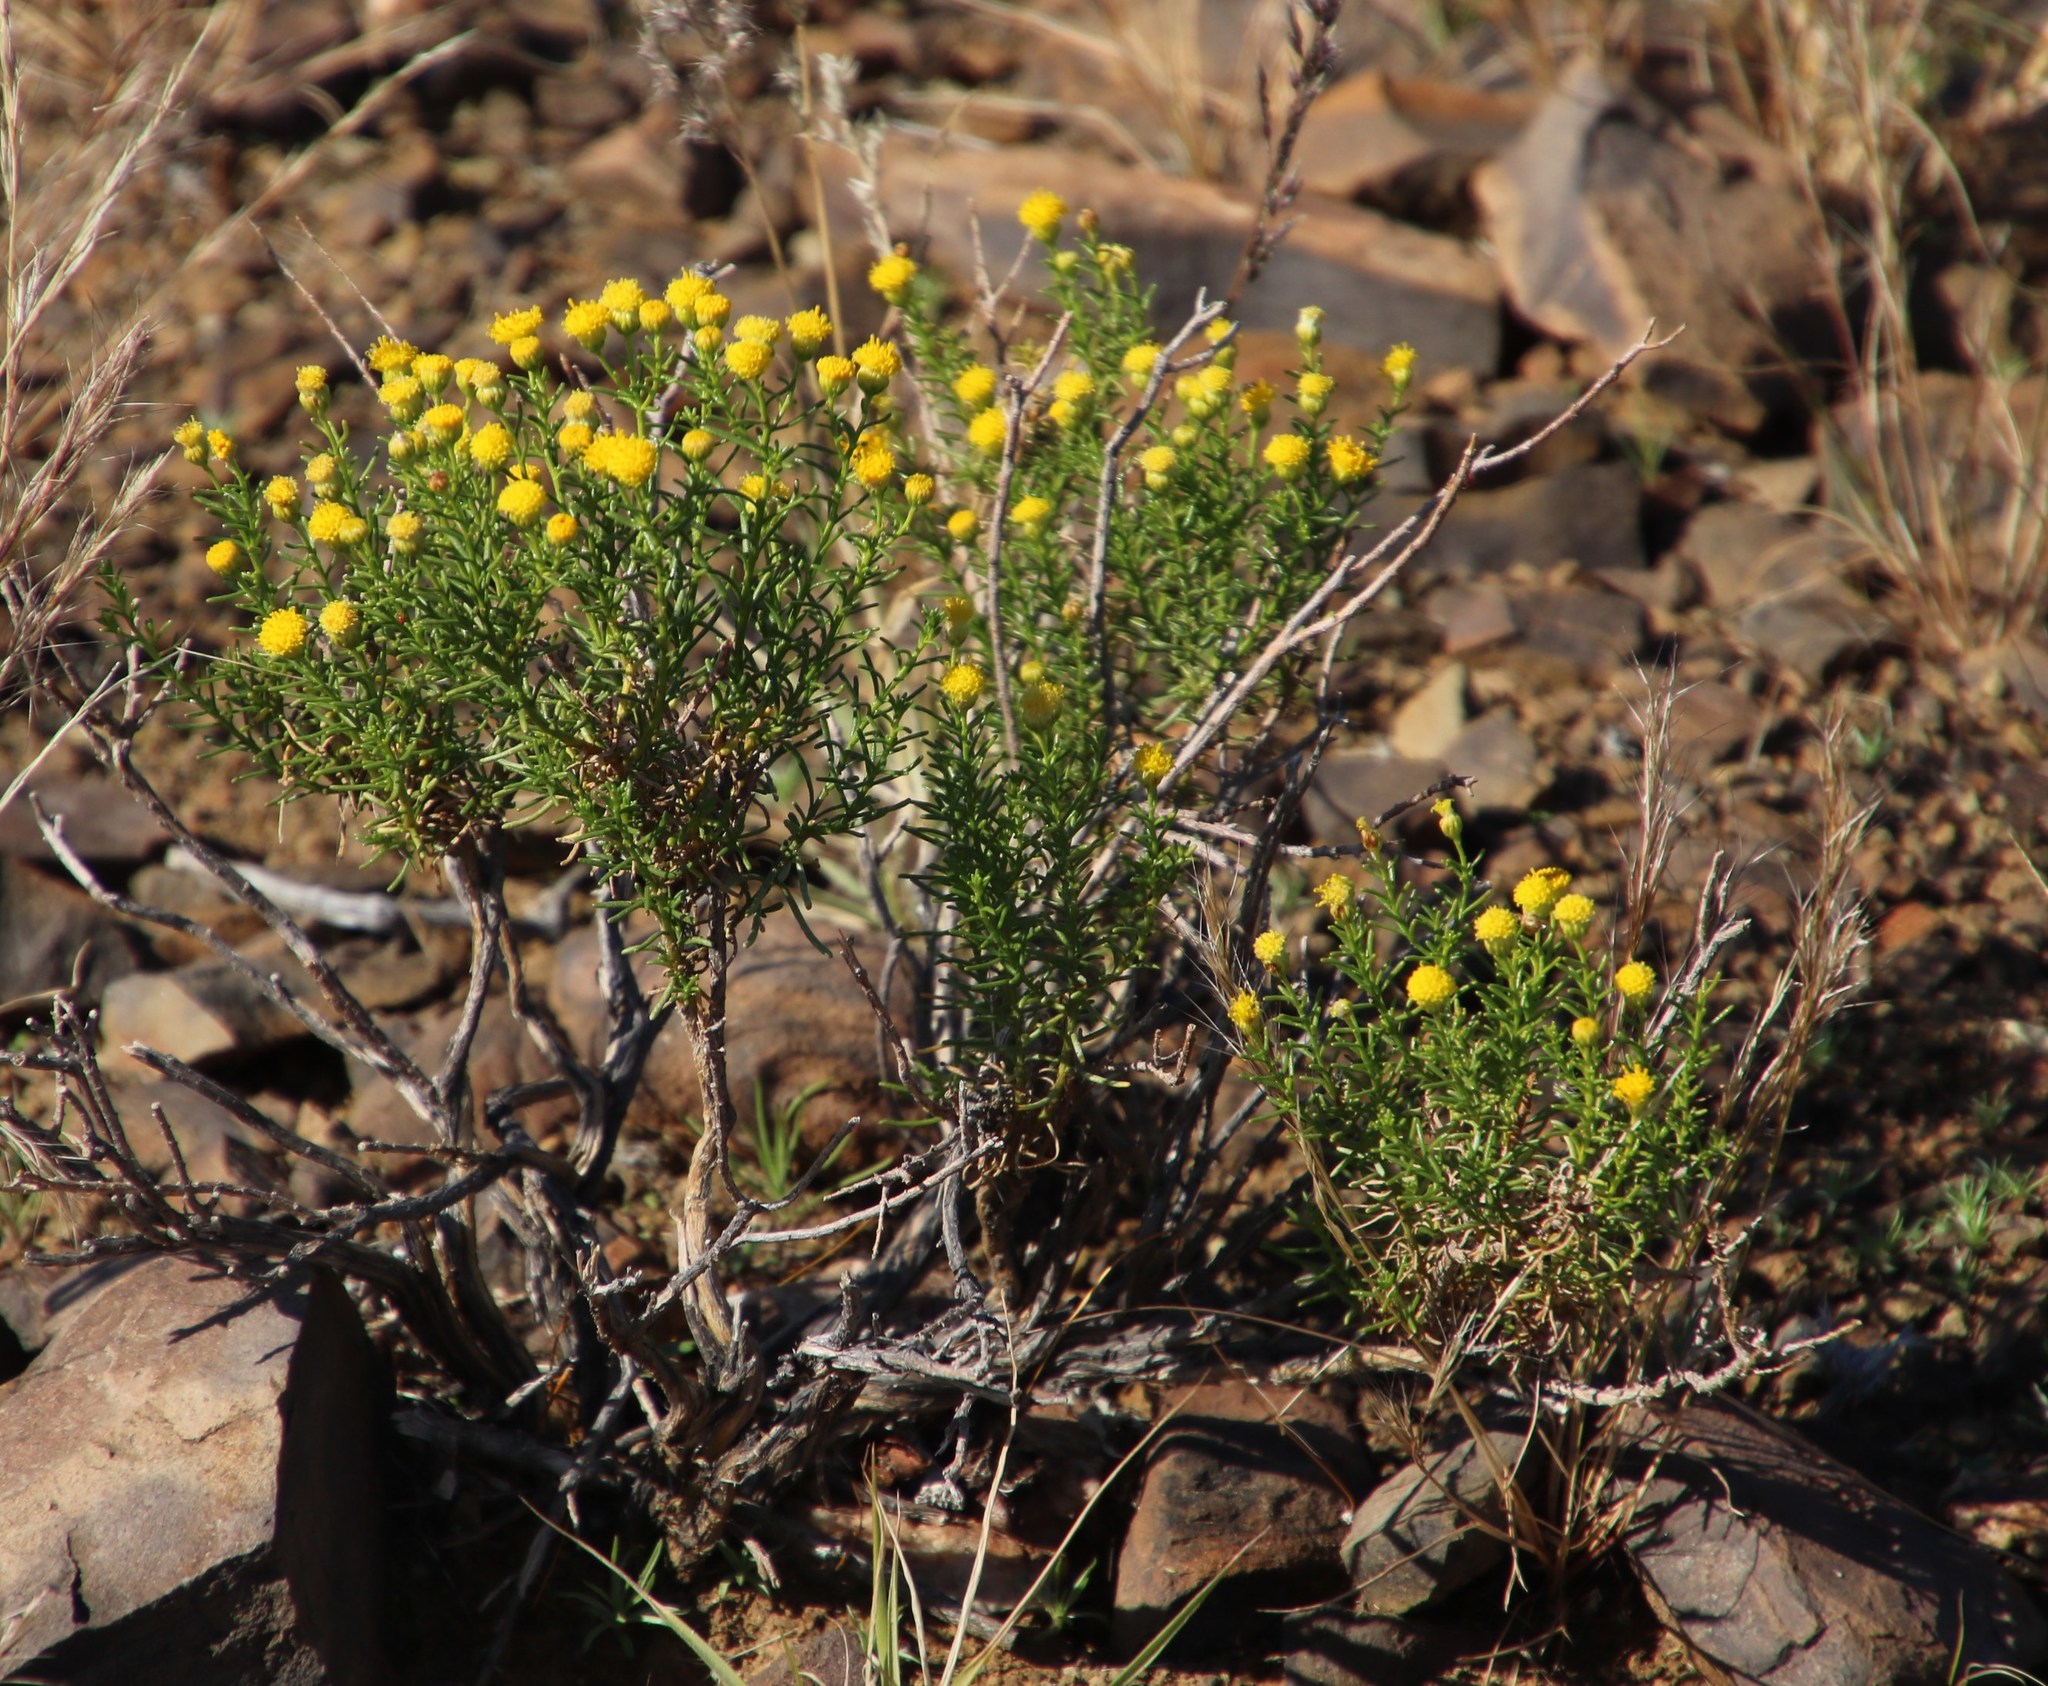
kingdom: Plantae
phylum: Tracheophyta
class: Magnoliopsida
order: Asterales
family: Asteraceae
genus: Chrysocoma
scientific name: Chrysocoma ciliata
